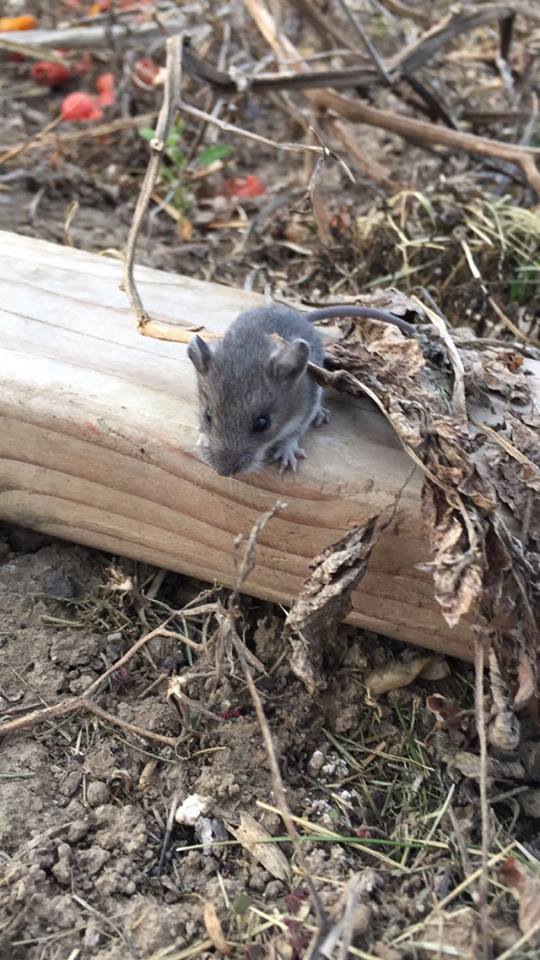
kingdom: Animalia
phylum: Chordata
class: Mammalia
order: Rodentia
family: Cricetidae
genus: Peromyscus
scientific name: Peromyscus maniculatus
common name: Deer mouse
